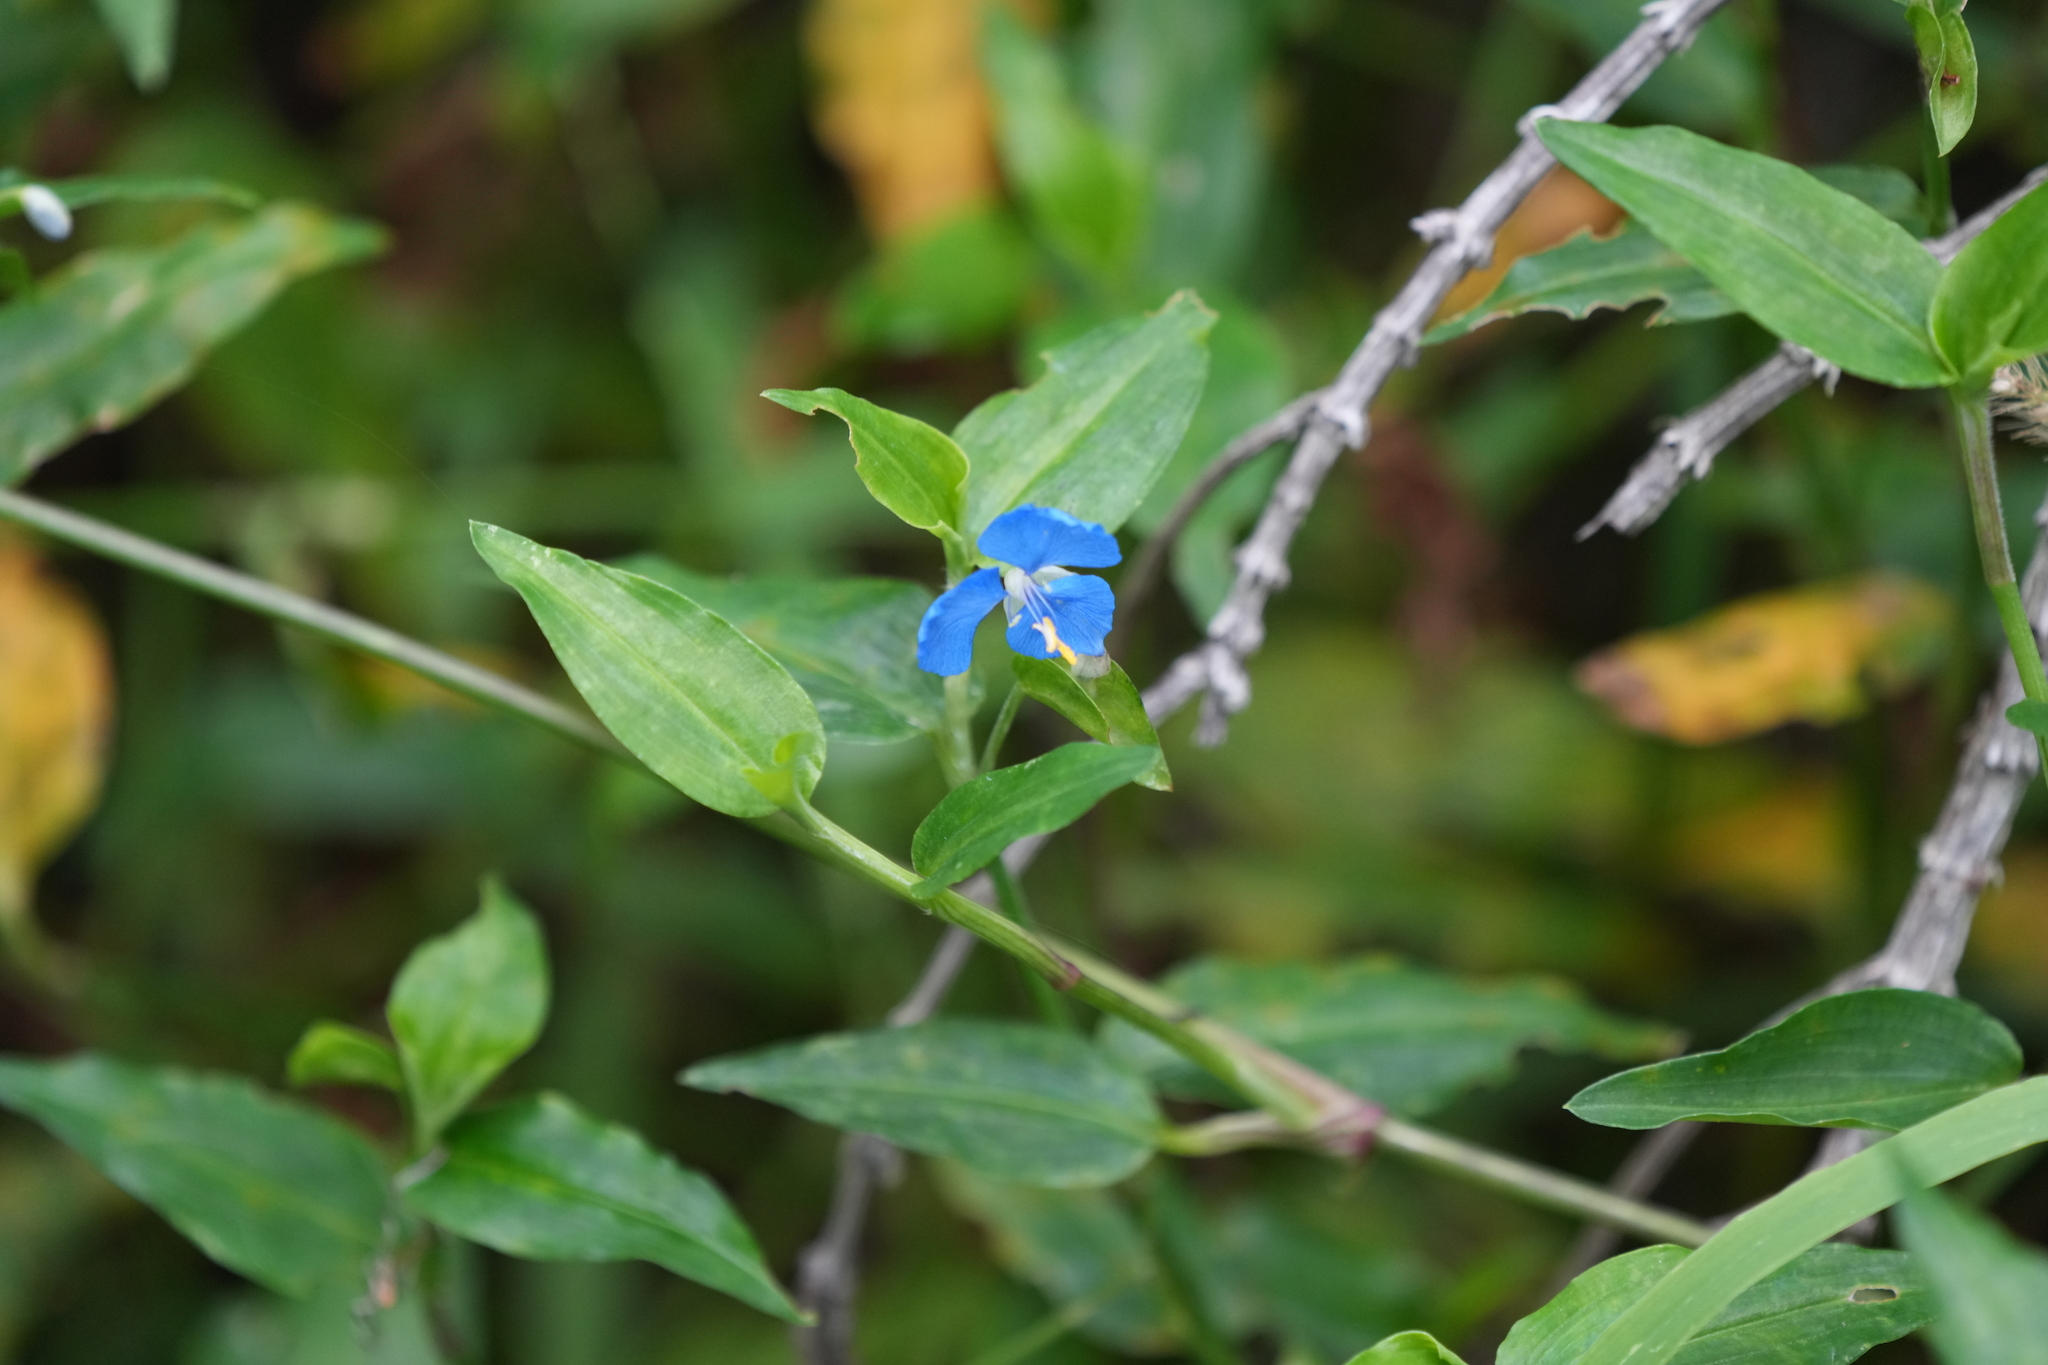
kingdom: Plantae
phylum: Tracheophyta
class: Liliopsida
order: Commelinales
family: Commelinaceae
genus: Commelina
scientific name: Commelina cyanea
